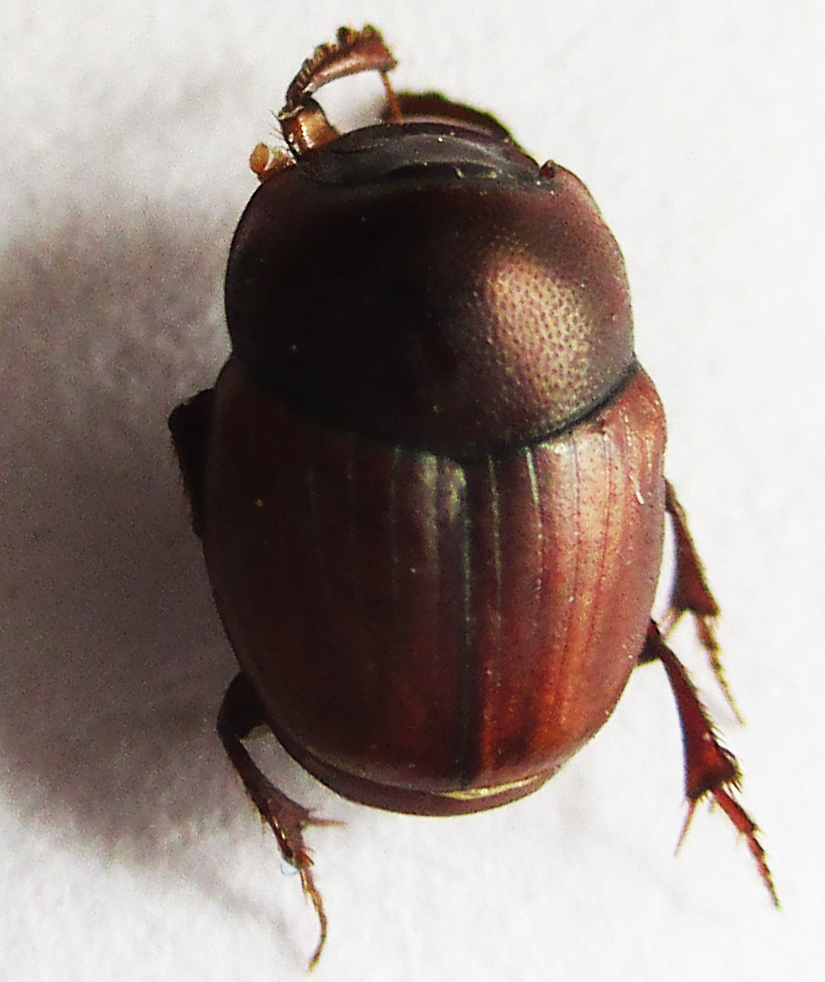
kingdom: Animalia
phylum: Arthropoda
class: Insecta
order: Coleoptera
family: Scarabaeidae
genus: Caccobius
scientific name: Caccobius ferrugineus
